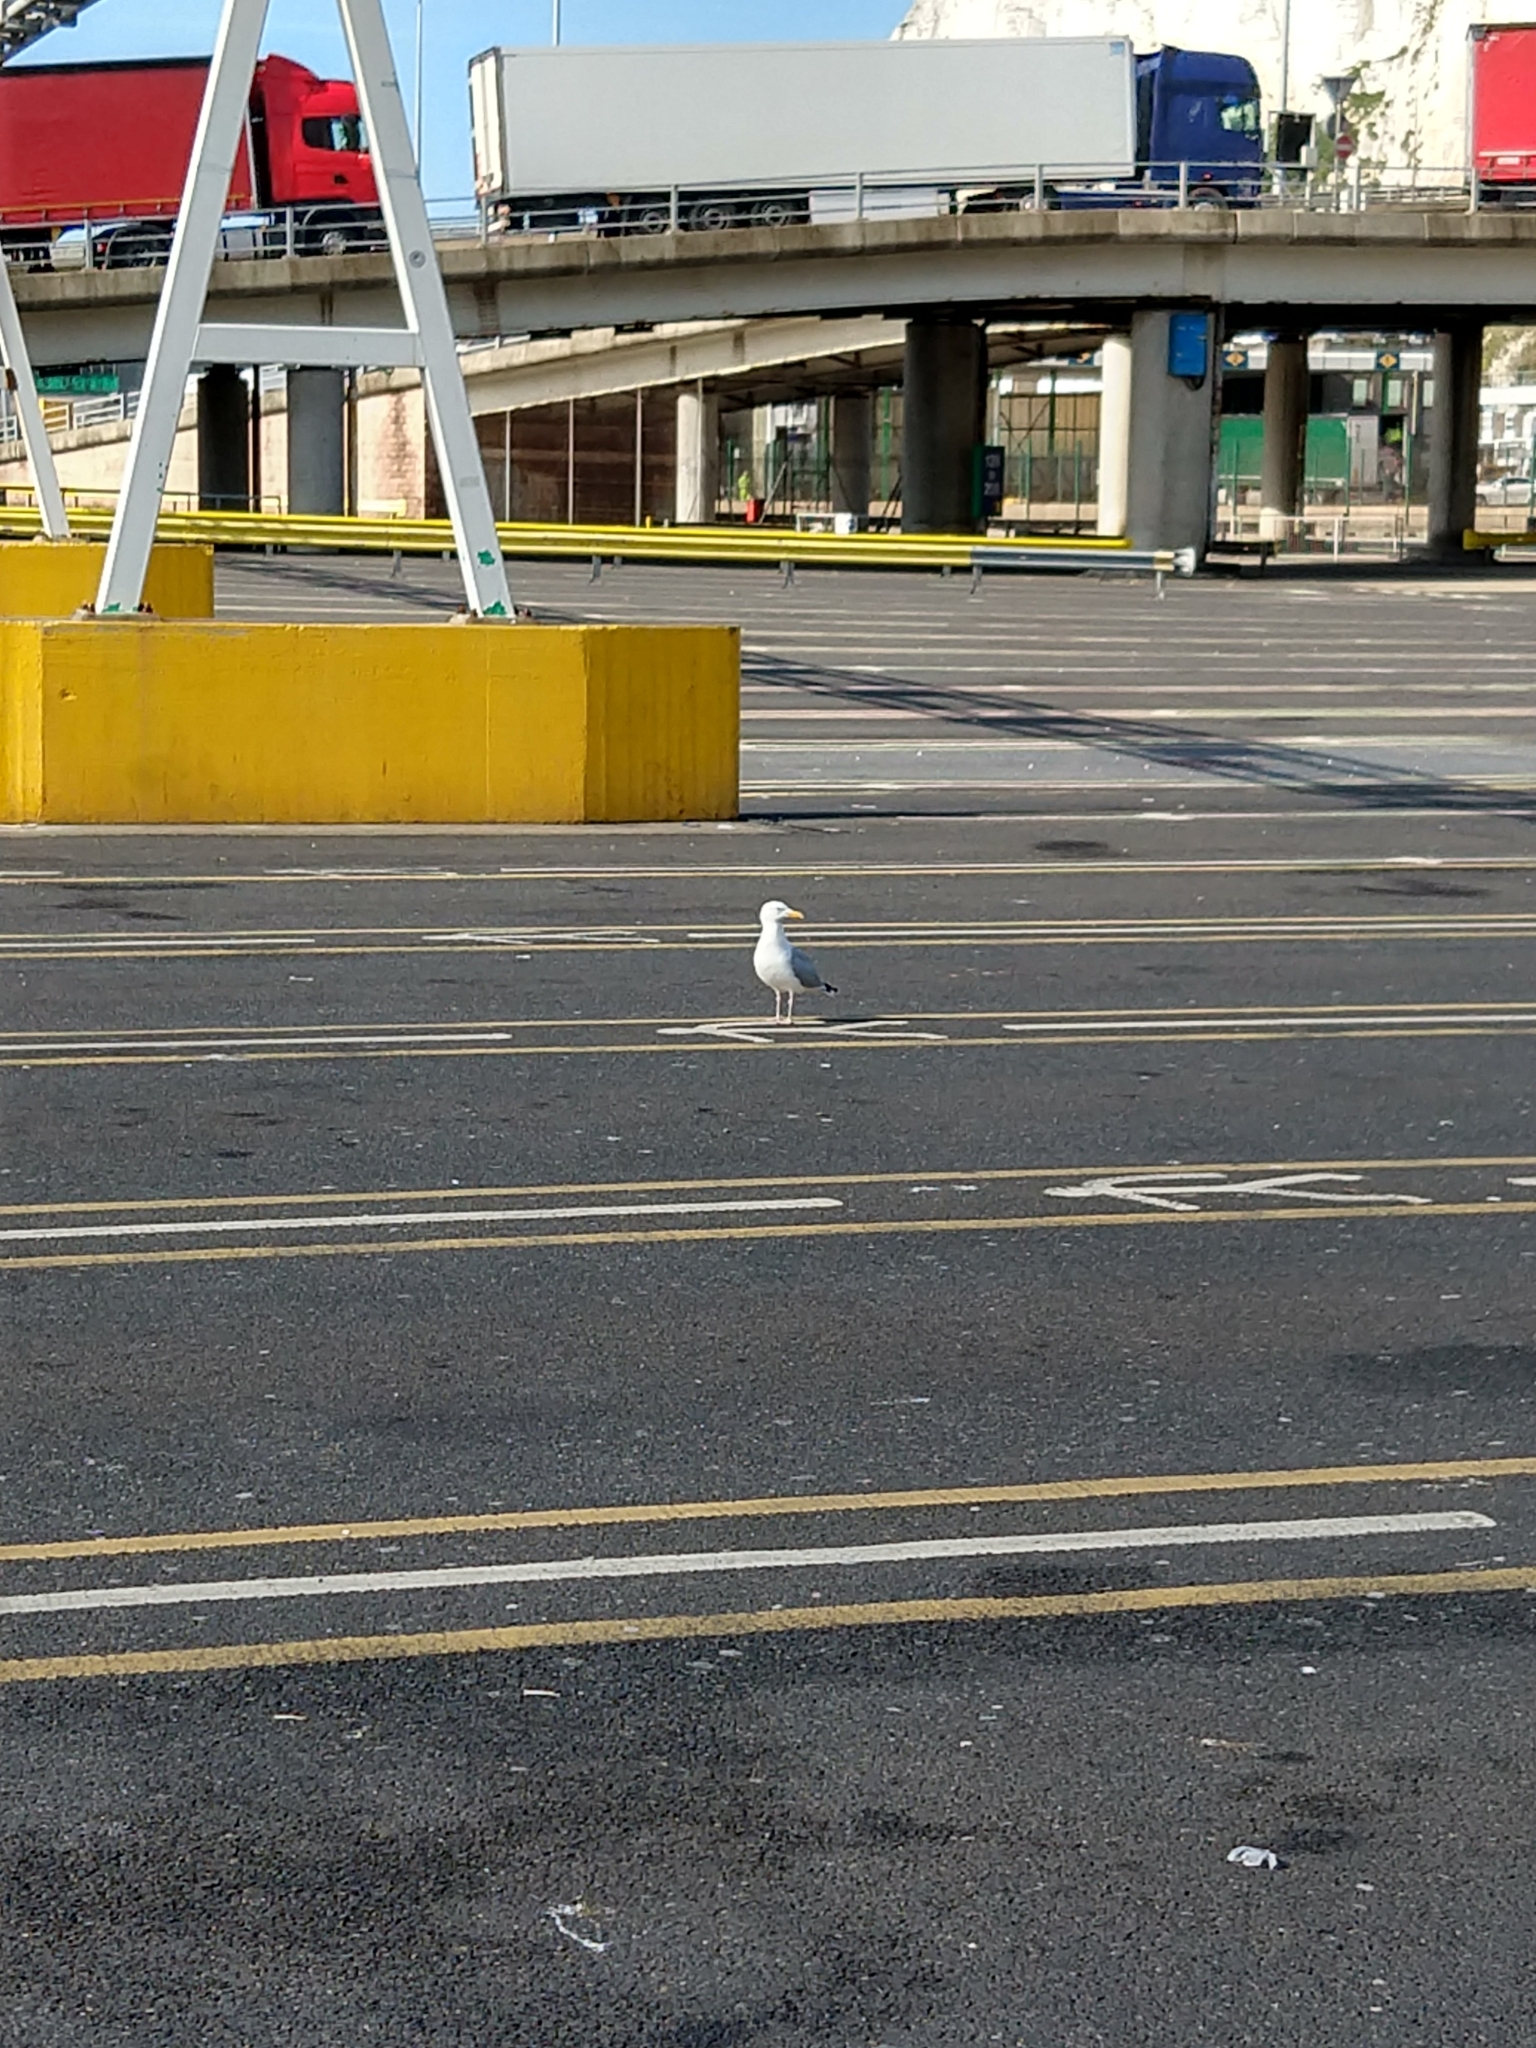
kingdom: Animalia
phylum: Chordata
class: Aves
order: Charadriiformes
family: Laridae
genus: Larus
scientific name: Larus argentatus
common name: Herring gull
